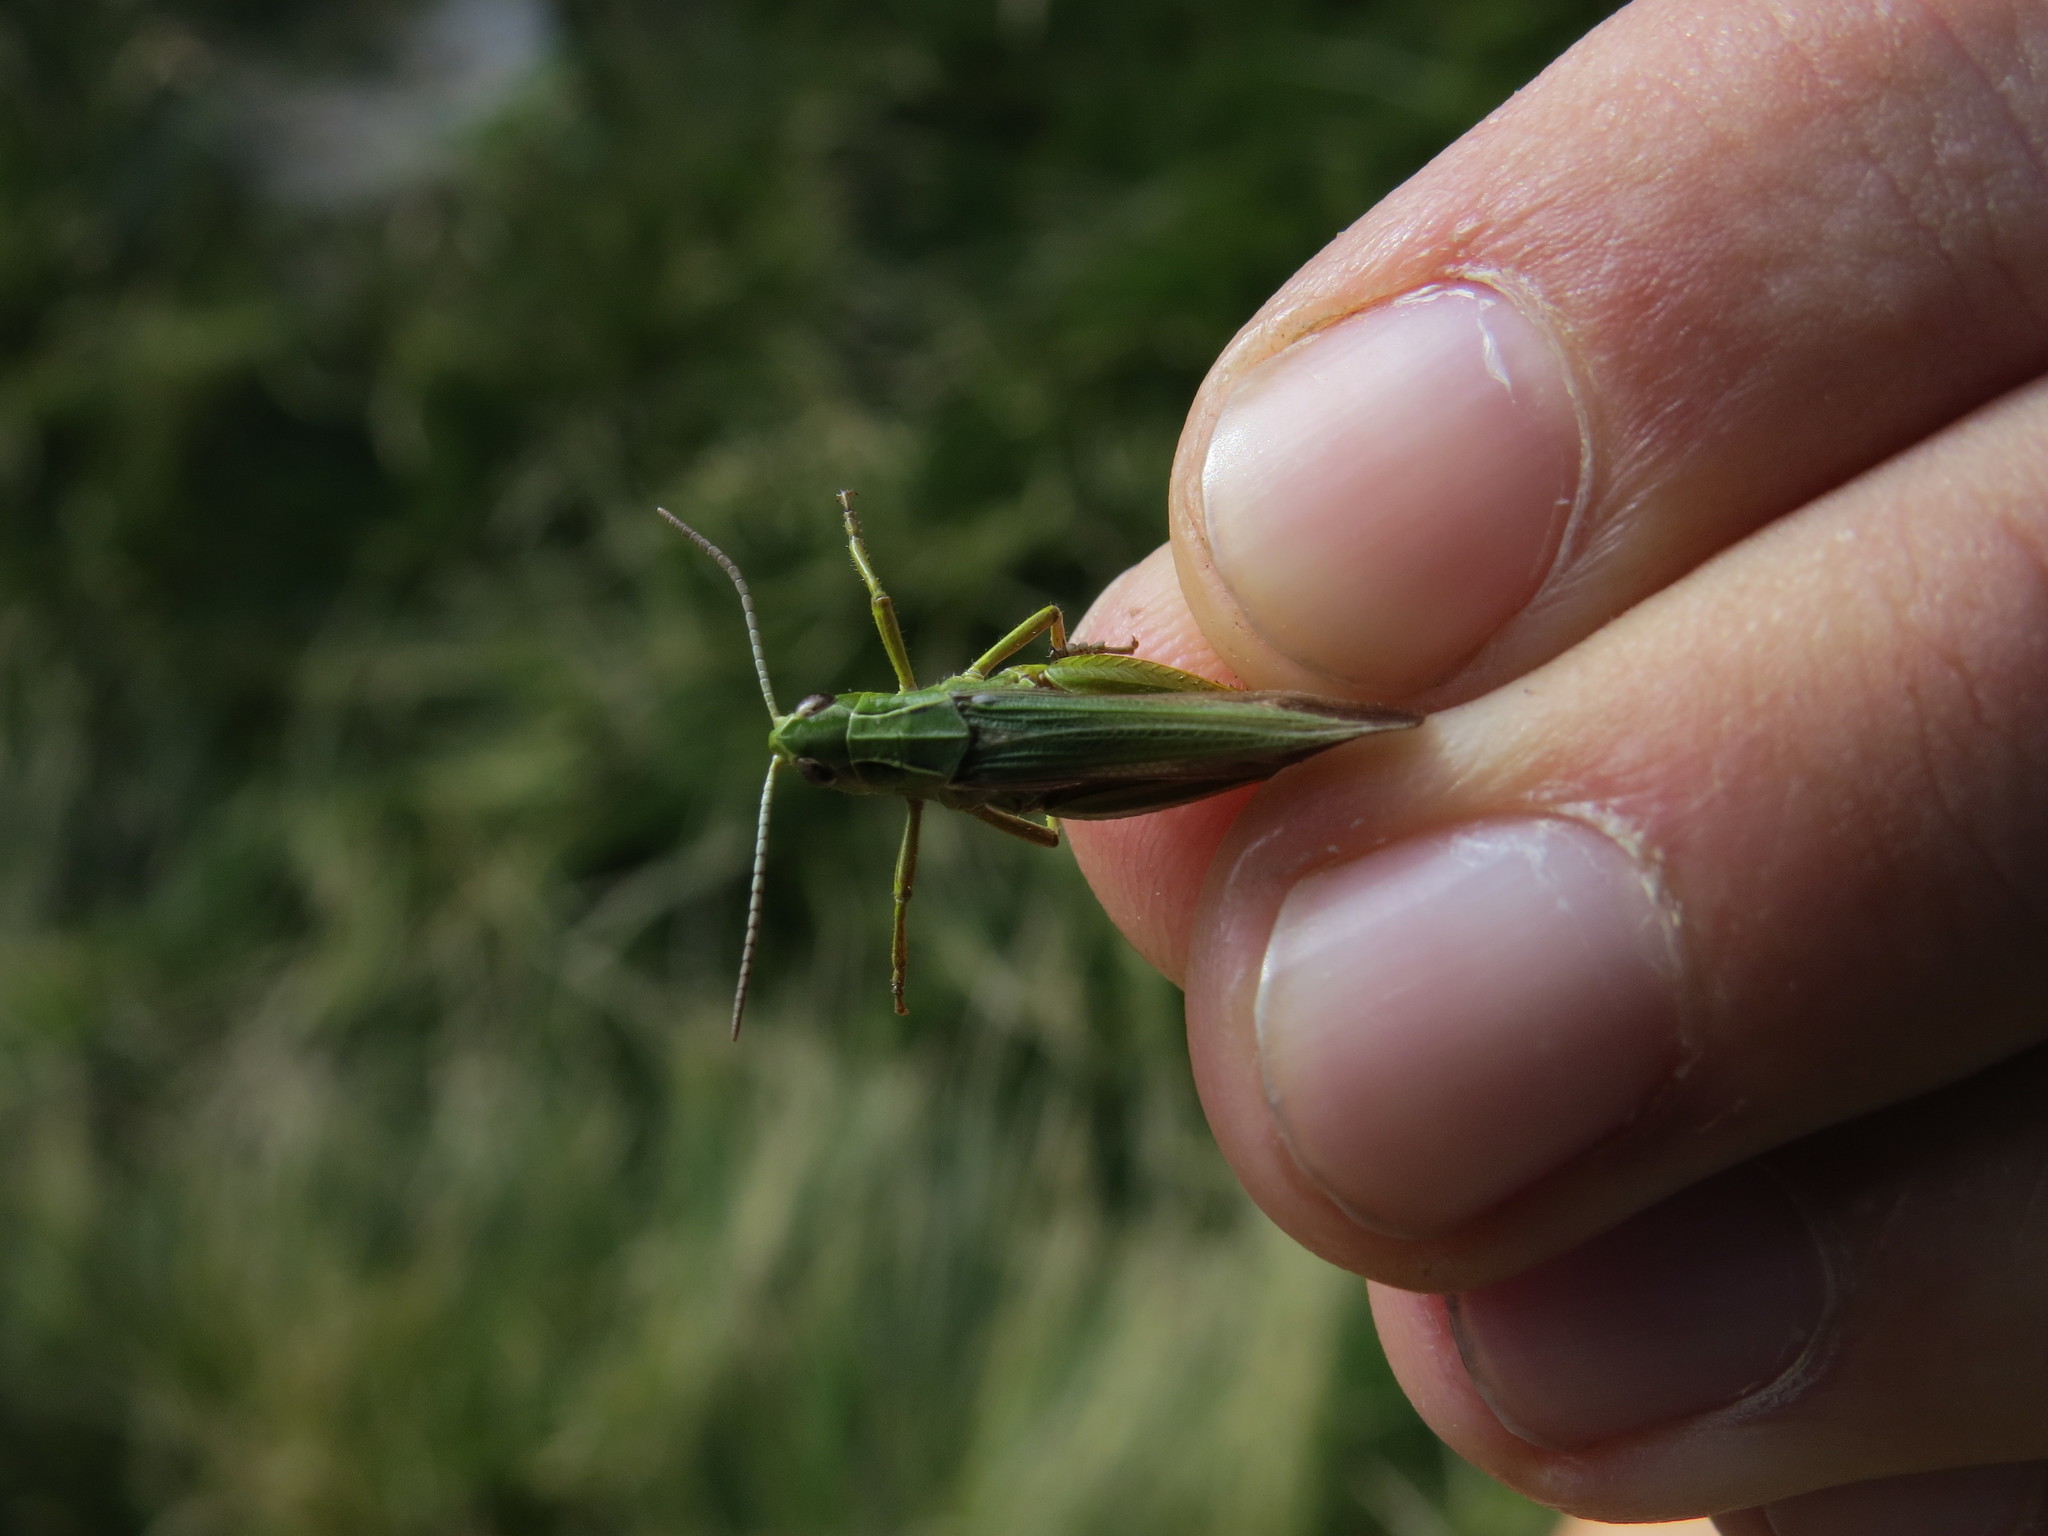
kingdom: Animalia
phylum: Arthropoda
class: Insecta
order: Orthoptera
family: Acrididae
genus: Omocestus
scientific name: Omocestus viridulus
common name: Common green grasshopper
